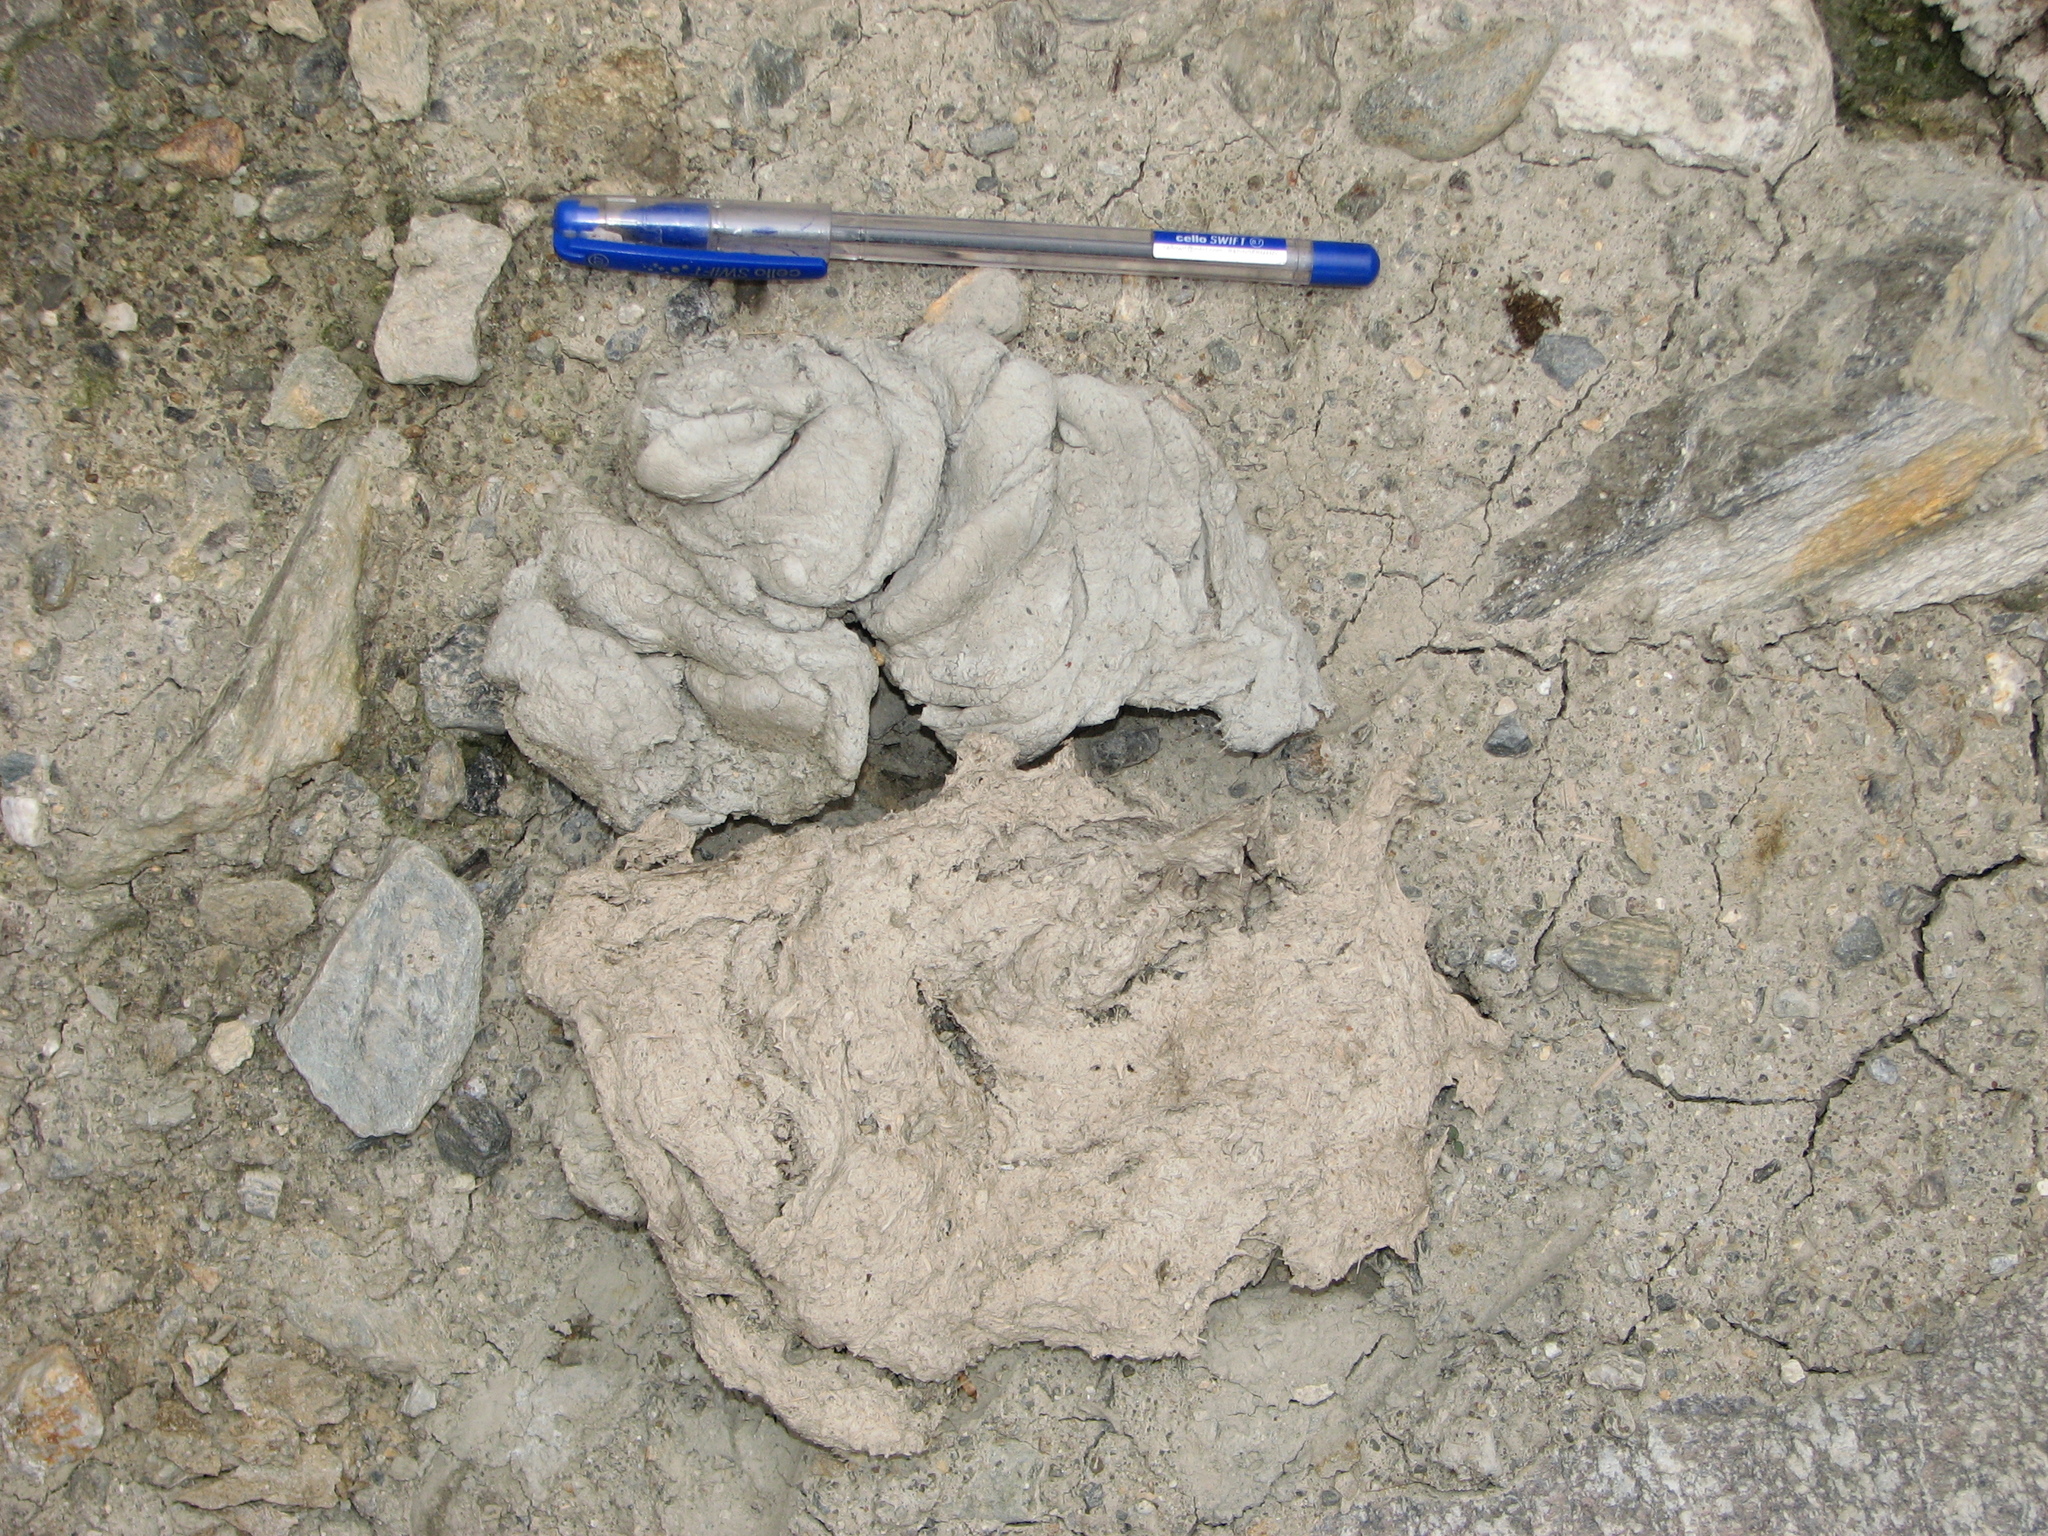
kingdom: Animalia
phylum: Chordata
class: Mammalia
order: Artiodactyla
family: Bovidae
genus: Budorcas
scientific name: Budorcas taxicolor
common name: Takin
